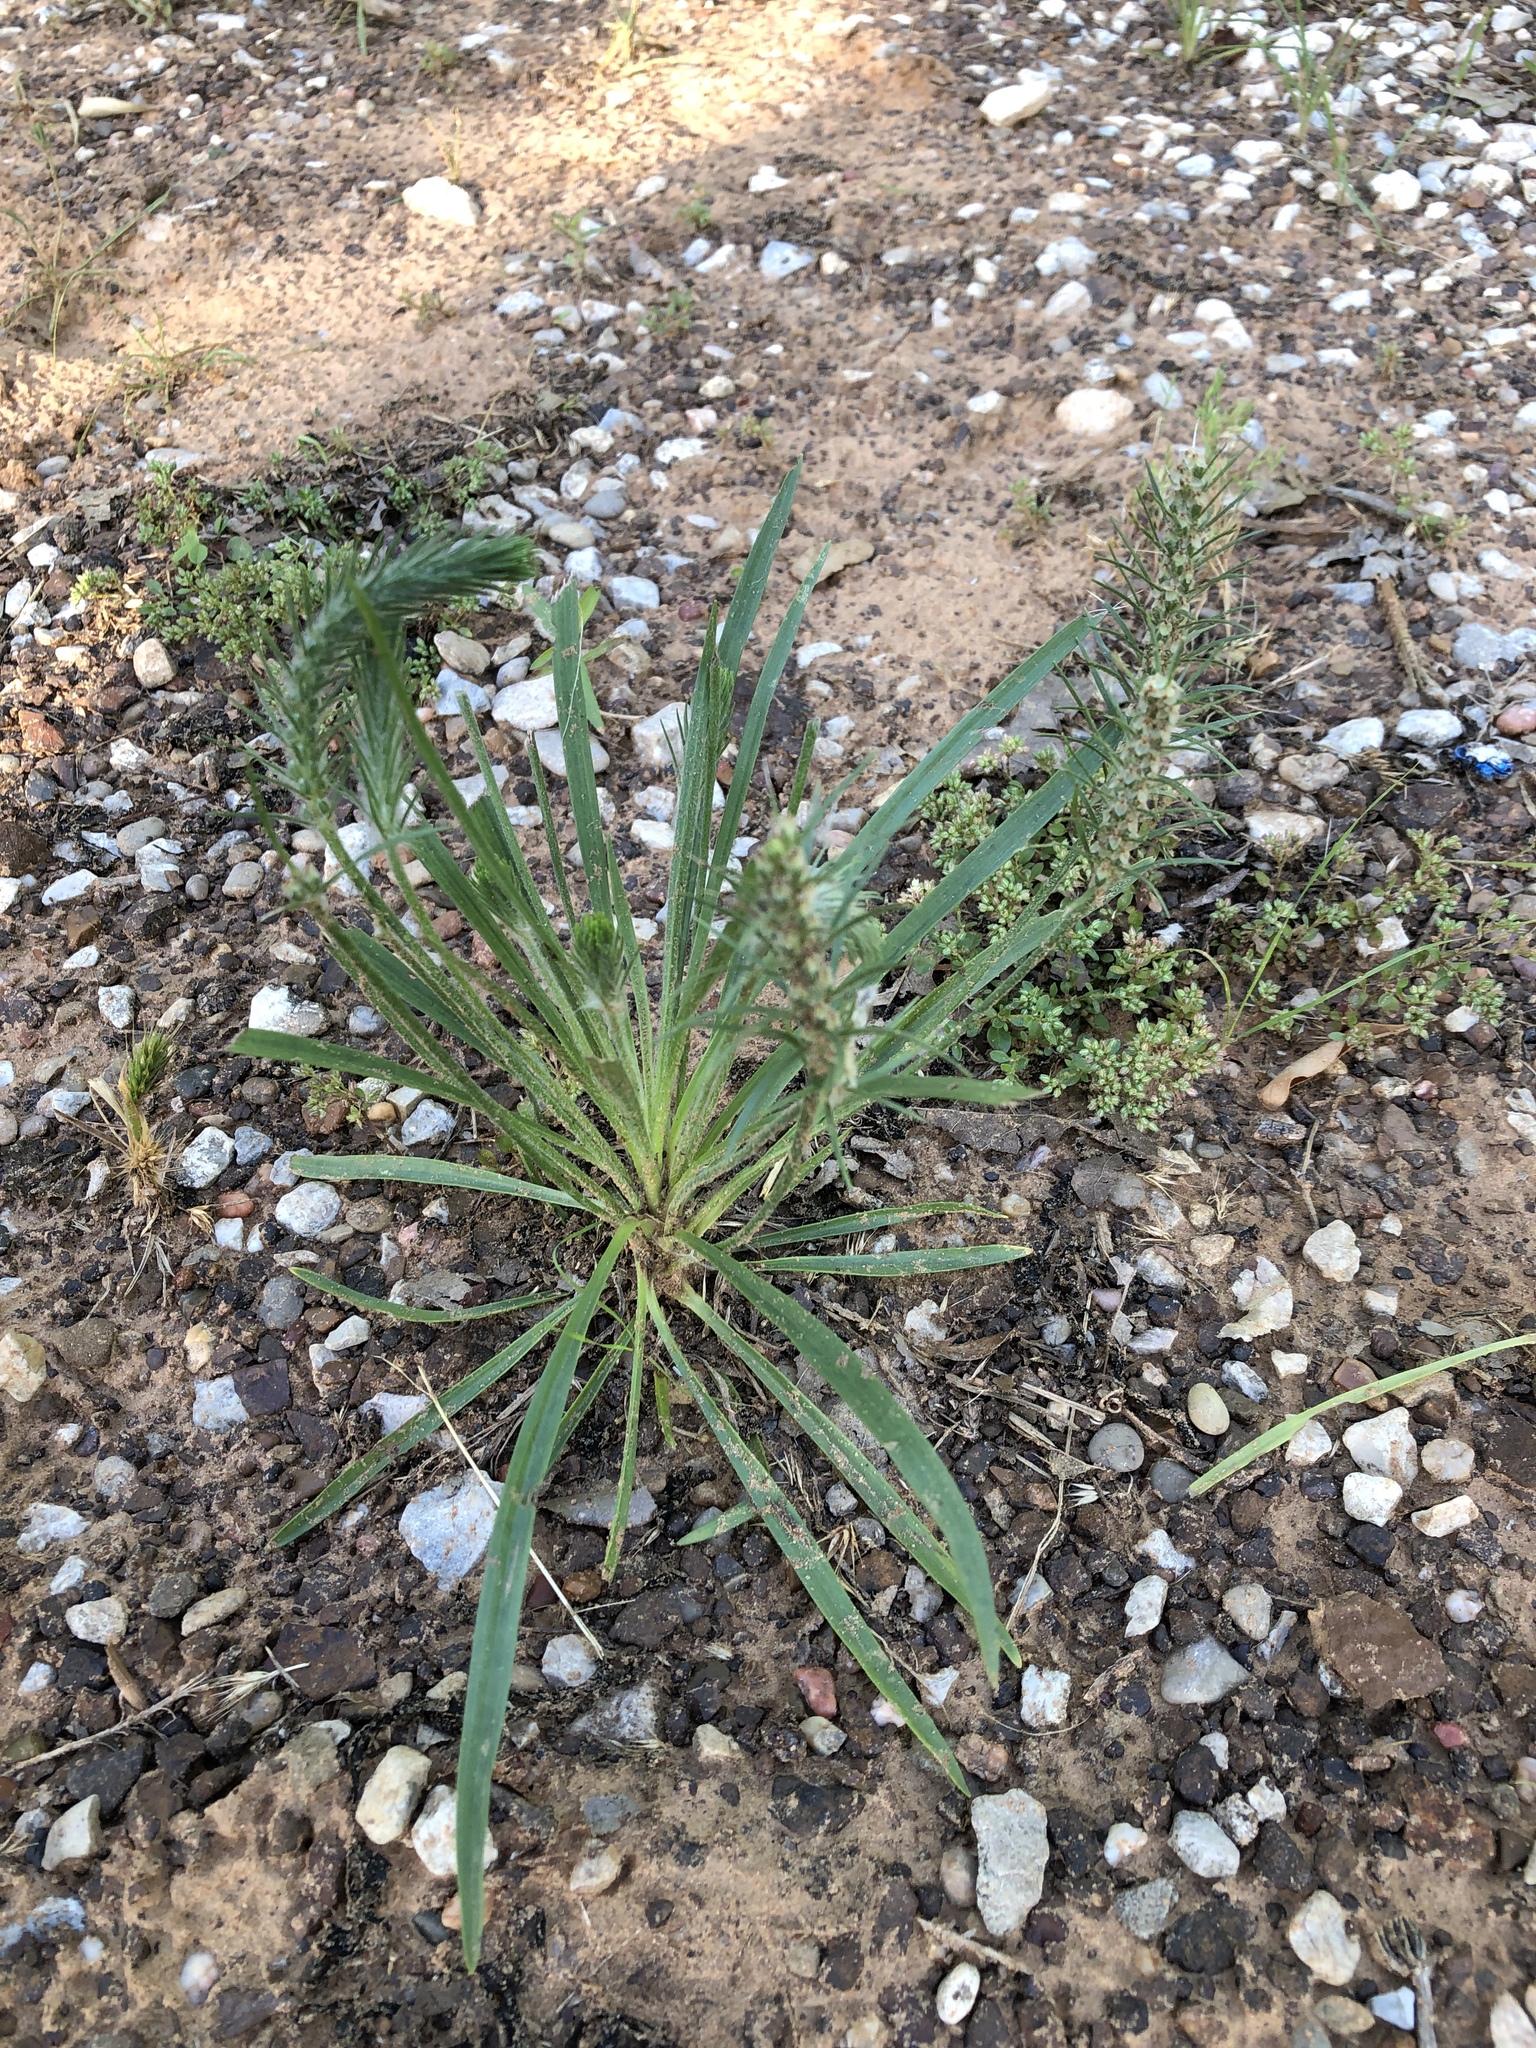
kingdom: Plantae
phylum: Tracheophyta
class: Magnoliopsida
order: Lamiales
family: Plantaginaceae
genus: Plantago
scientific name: Plantago aristata
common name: Bracted plantain
